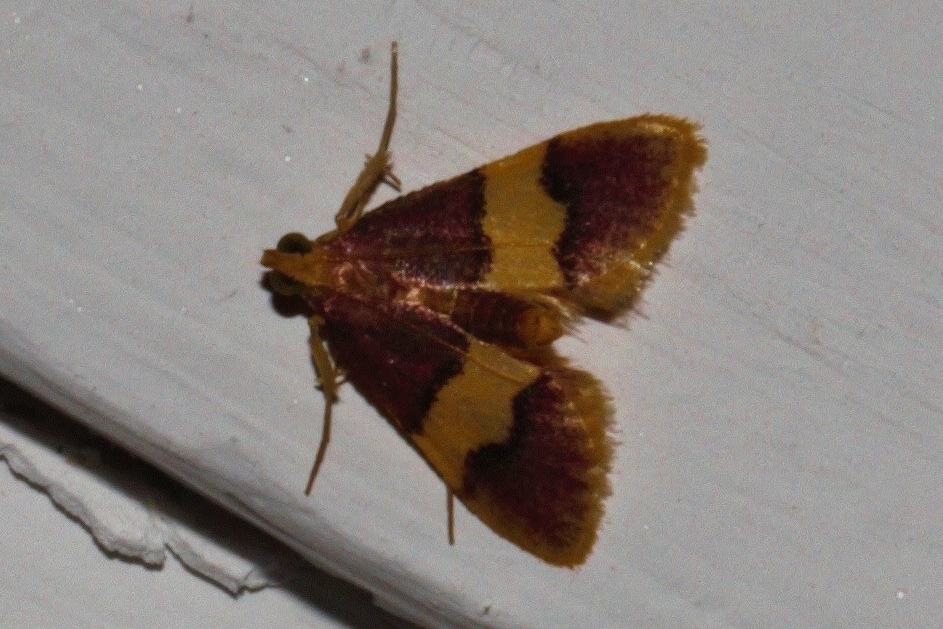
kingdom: Animalia
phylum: Arthropoda
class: Insecta
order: Lepidoptera
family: Pyralidae
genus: Bostra
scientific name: Bostra xanthorhodalis
